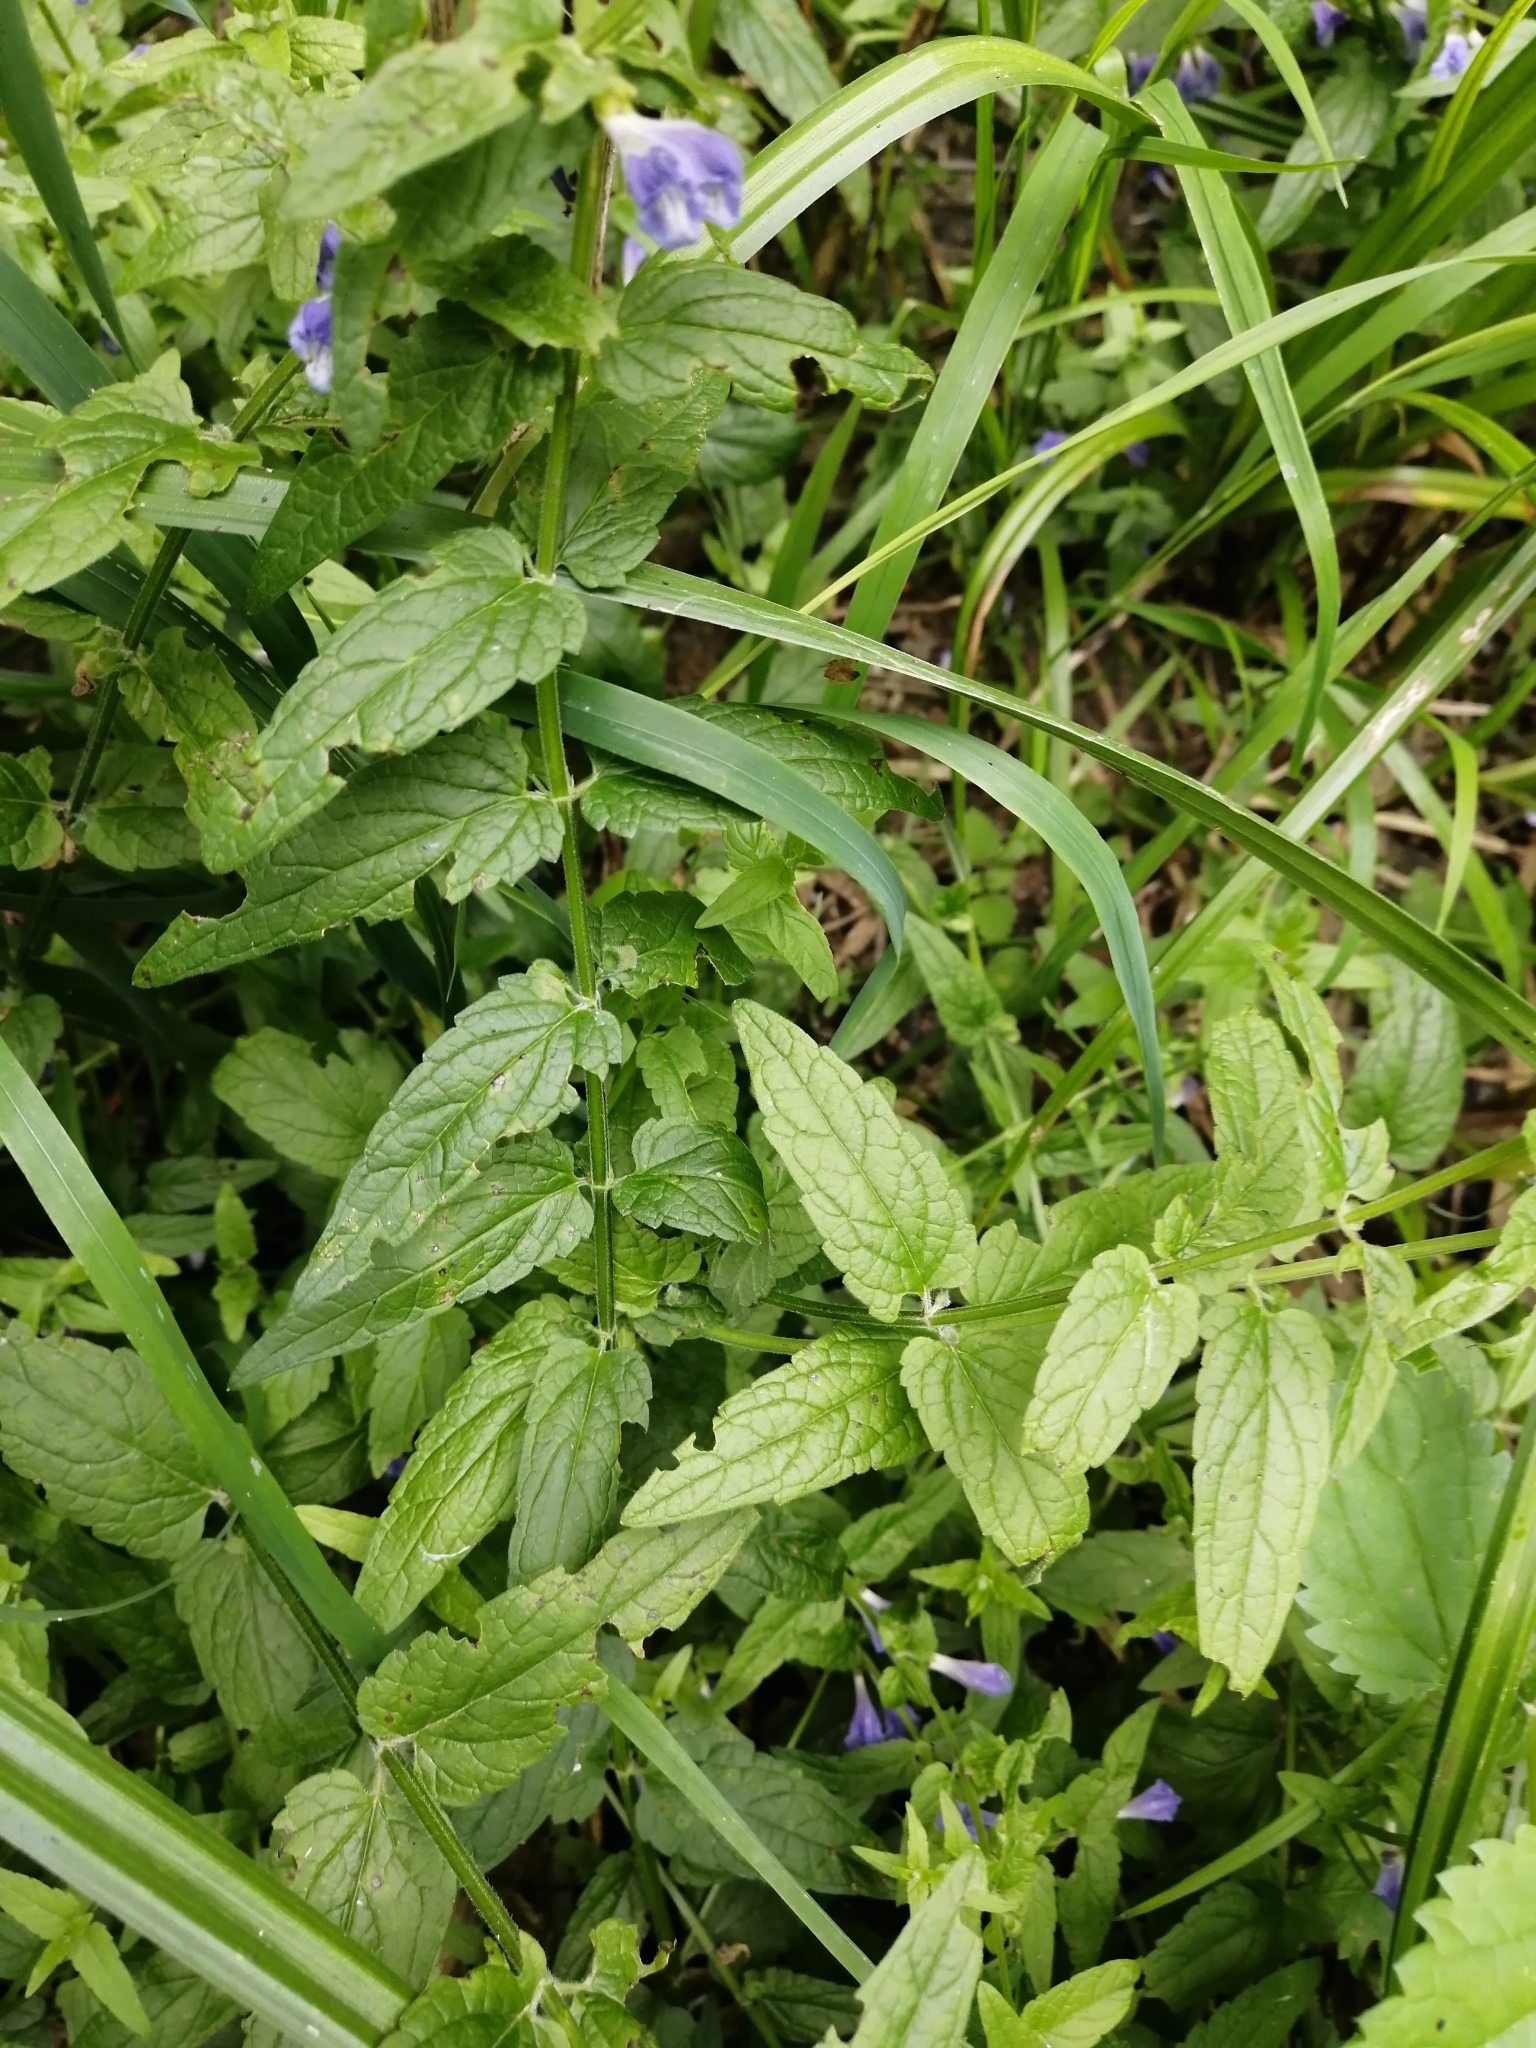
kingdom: Plantae
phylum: Tracheophyta
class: Magnoliopsida
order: Lamiales
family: Lamiaceae
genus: Scutellaria
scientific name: Scutellaria galericulata
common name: Skullcap
